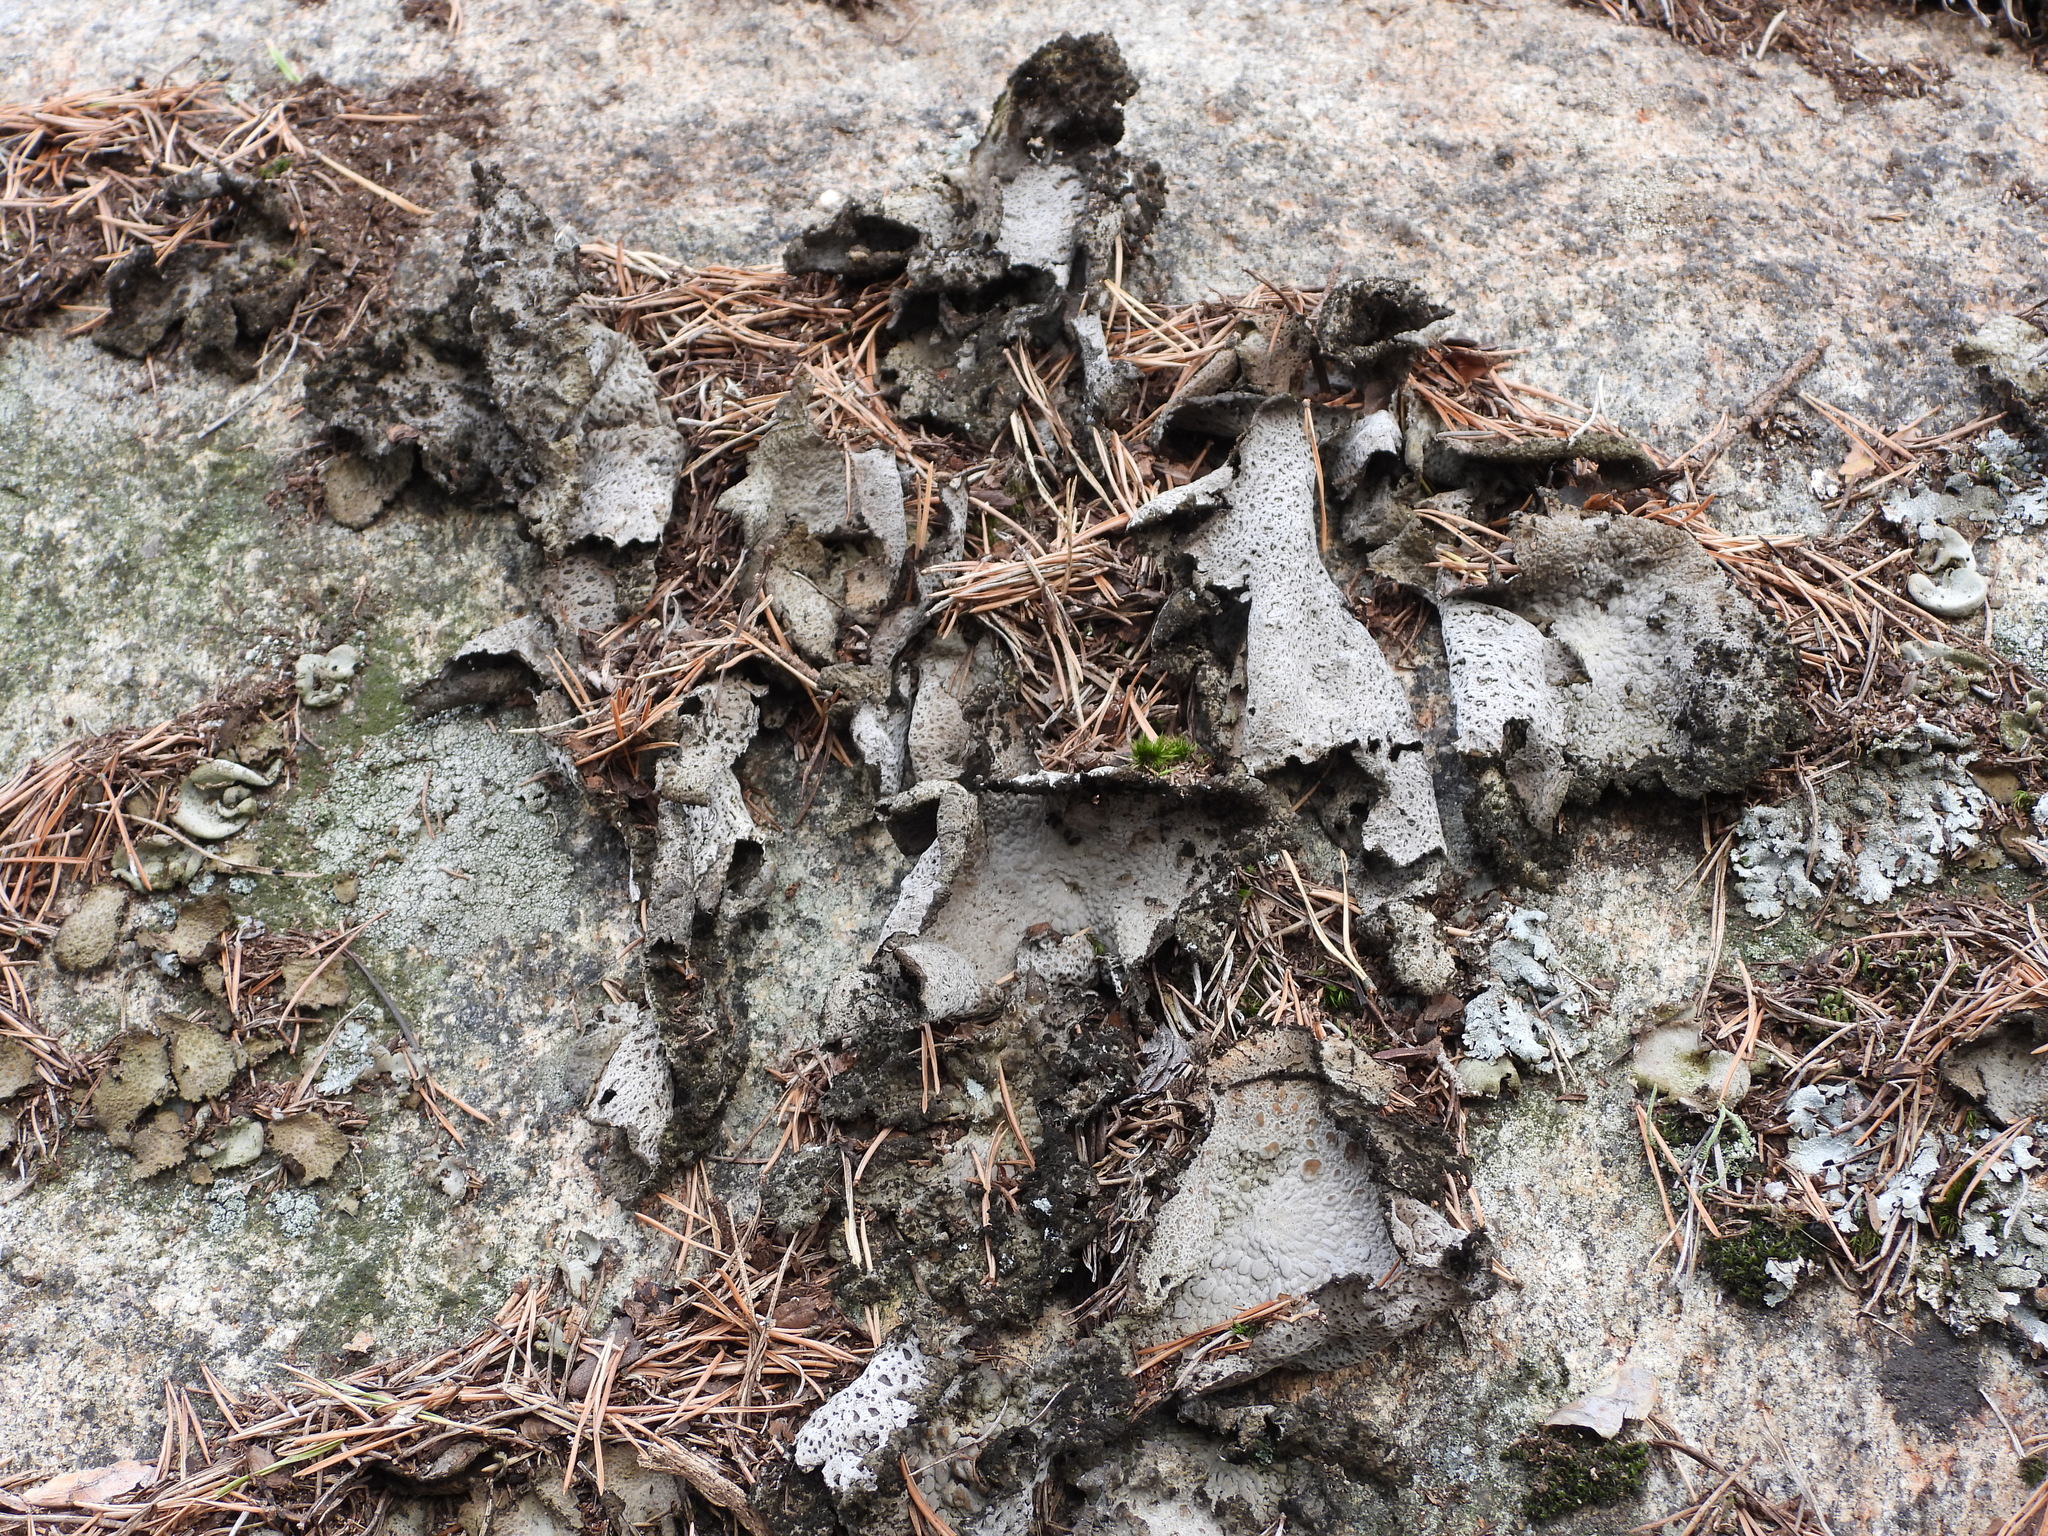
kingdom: Fungi
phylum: Ascomycota
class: Lecanoromycetes
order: Umbilicariales
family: Umbilicariaceae
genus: Lasallia
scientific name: Lasallia pustulata
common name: Blistered toadskin lichen
